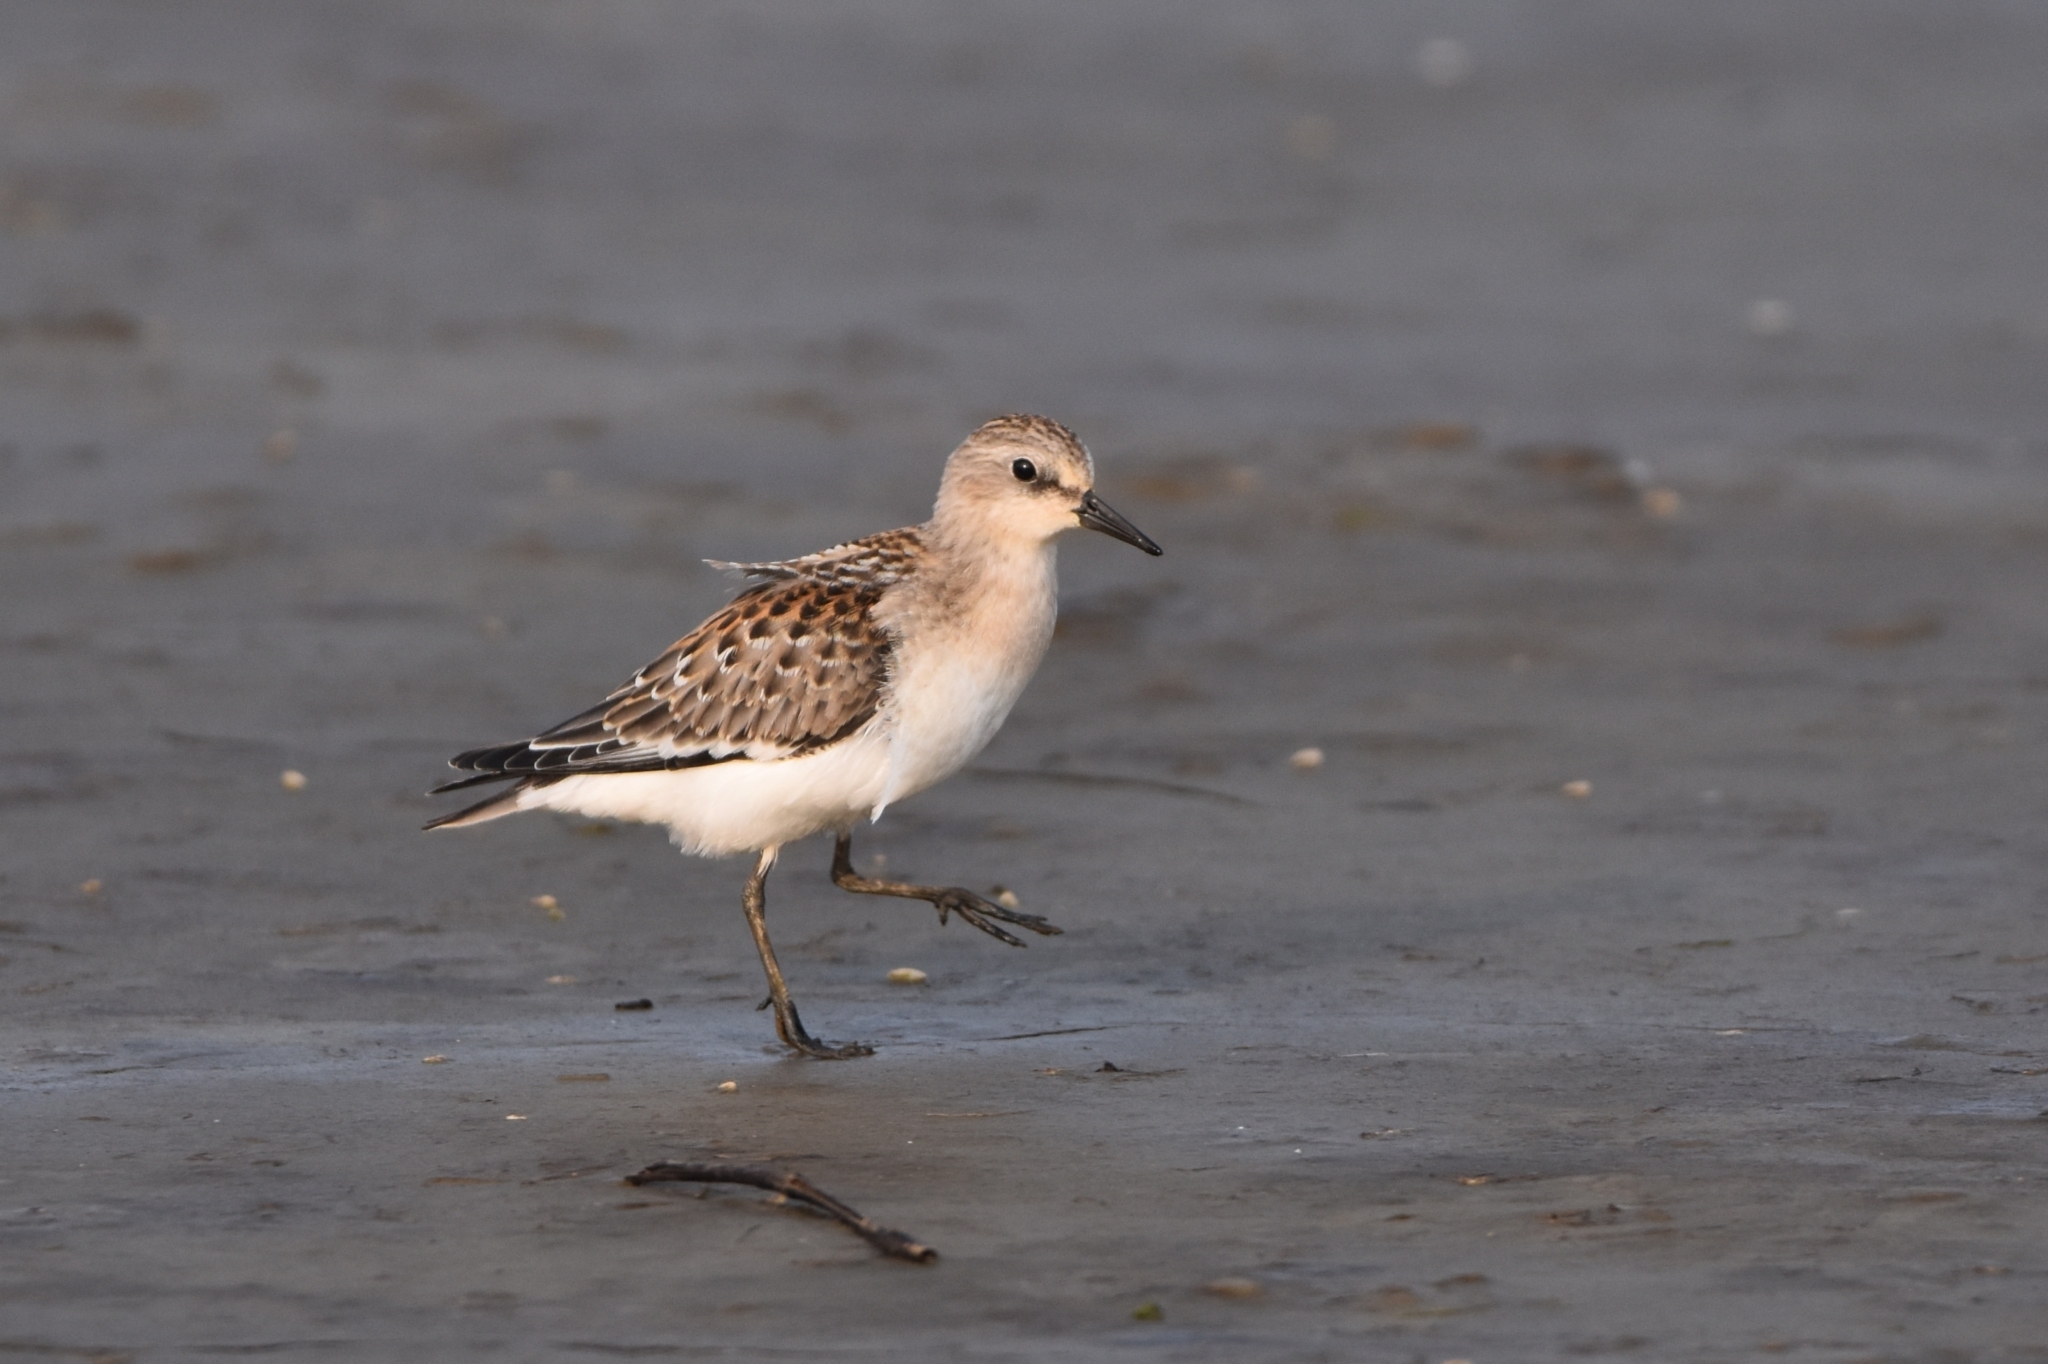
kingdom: Animalia
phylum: Chordata
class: Aves
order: Charadriiformes
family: Scolopacidae
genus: Calidris
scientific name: Calidris ruficollis
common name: Red-necked stint
